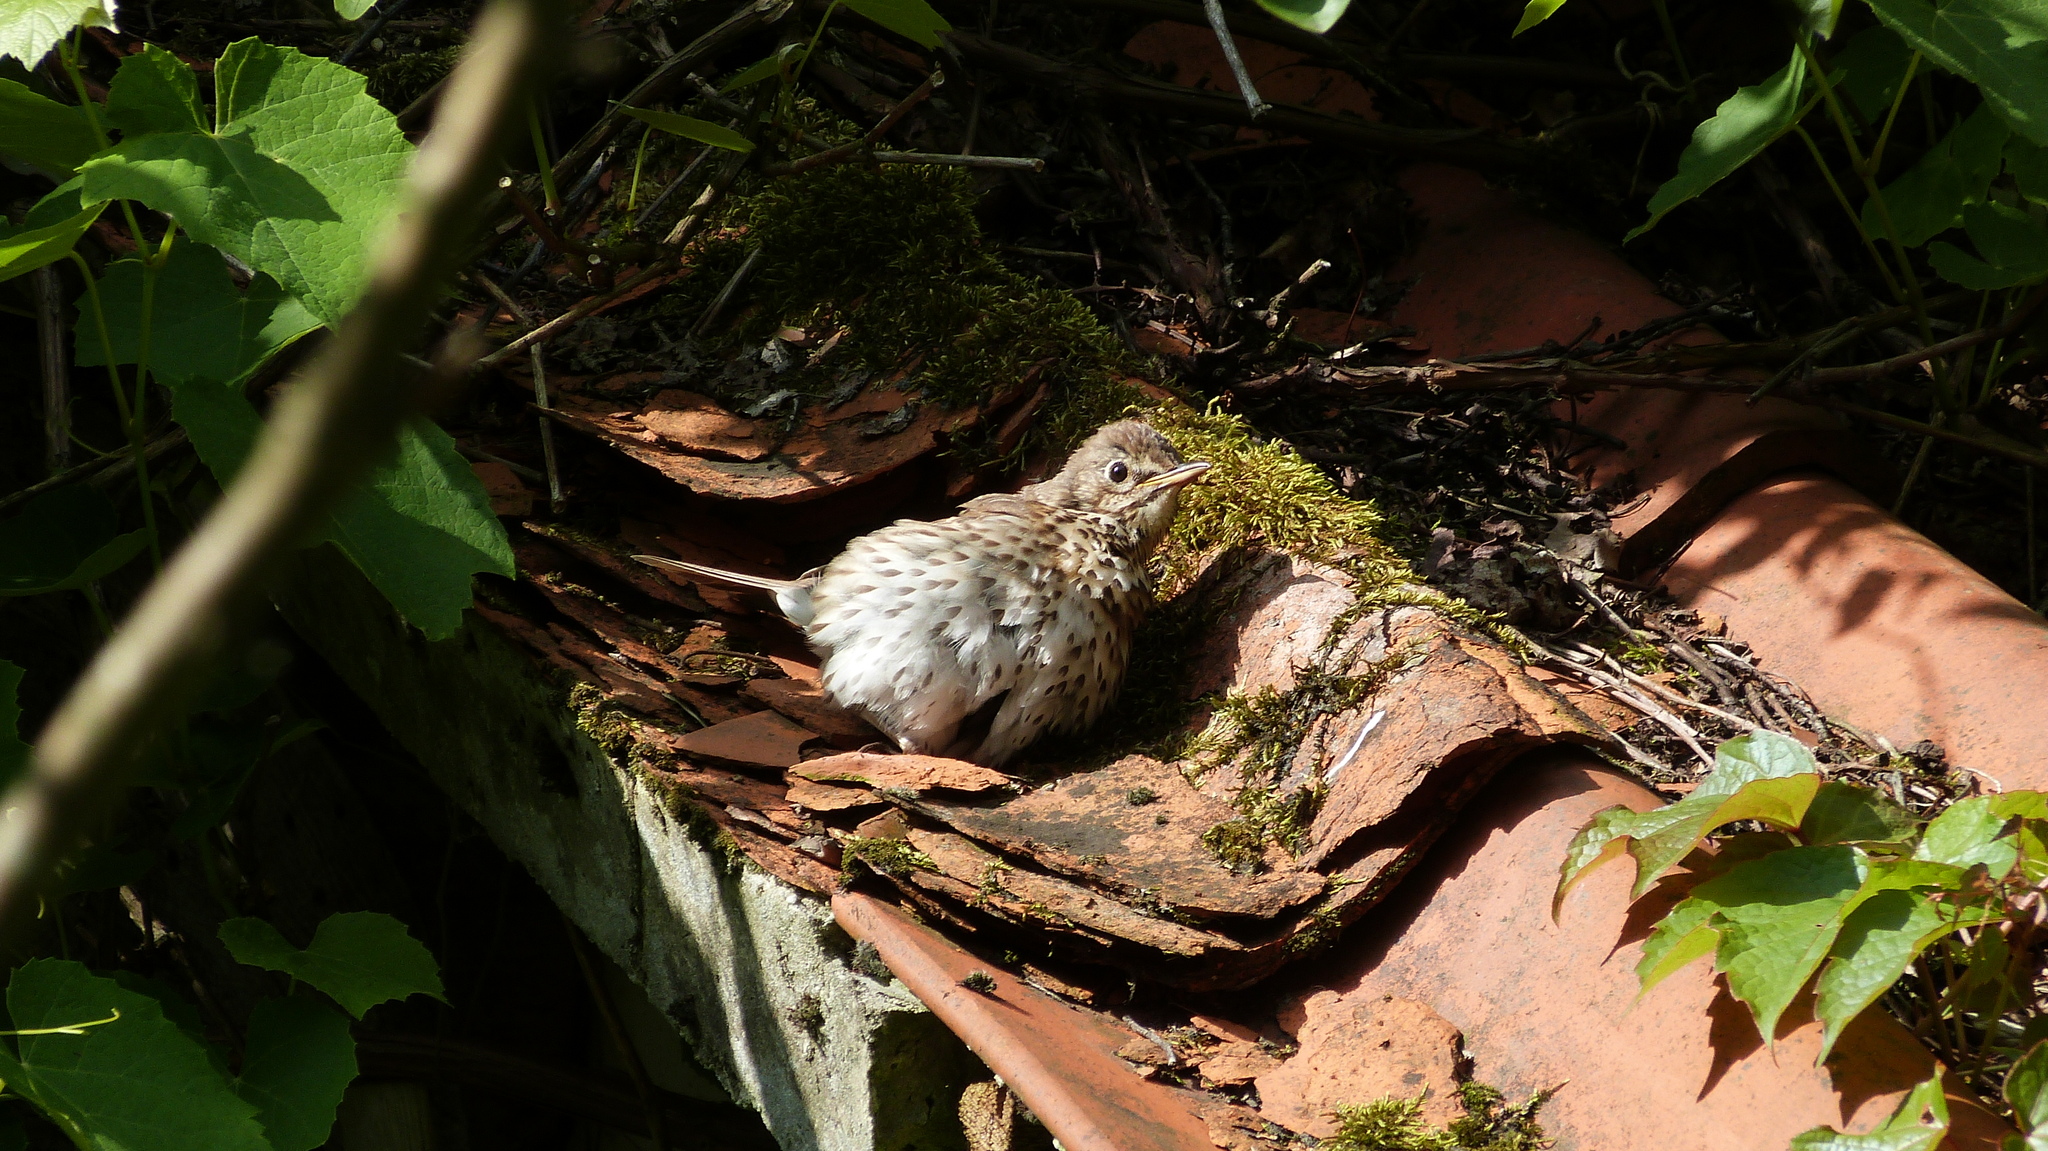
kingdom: Animalia
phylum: Chordata
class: Aves
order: Passeriformes
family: Turdidae
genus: Turdus
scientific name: Turdus philomelos
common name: Song thrush
